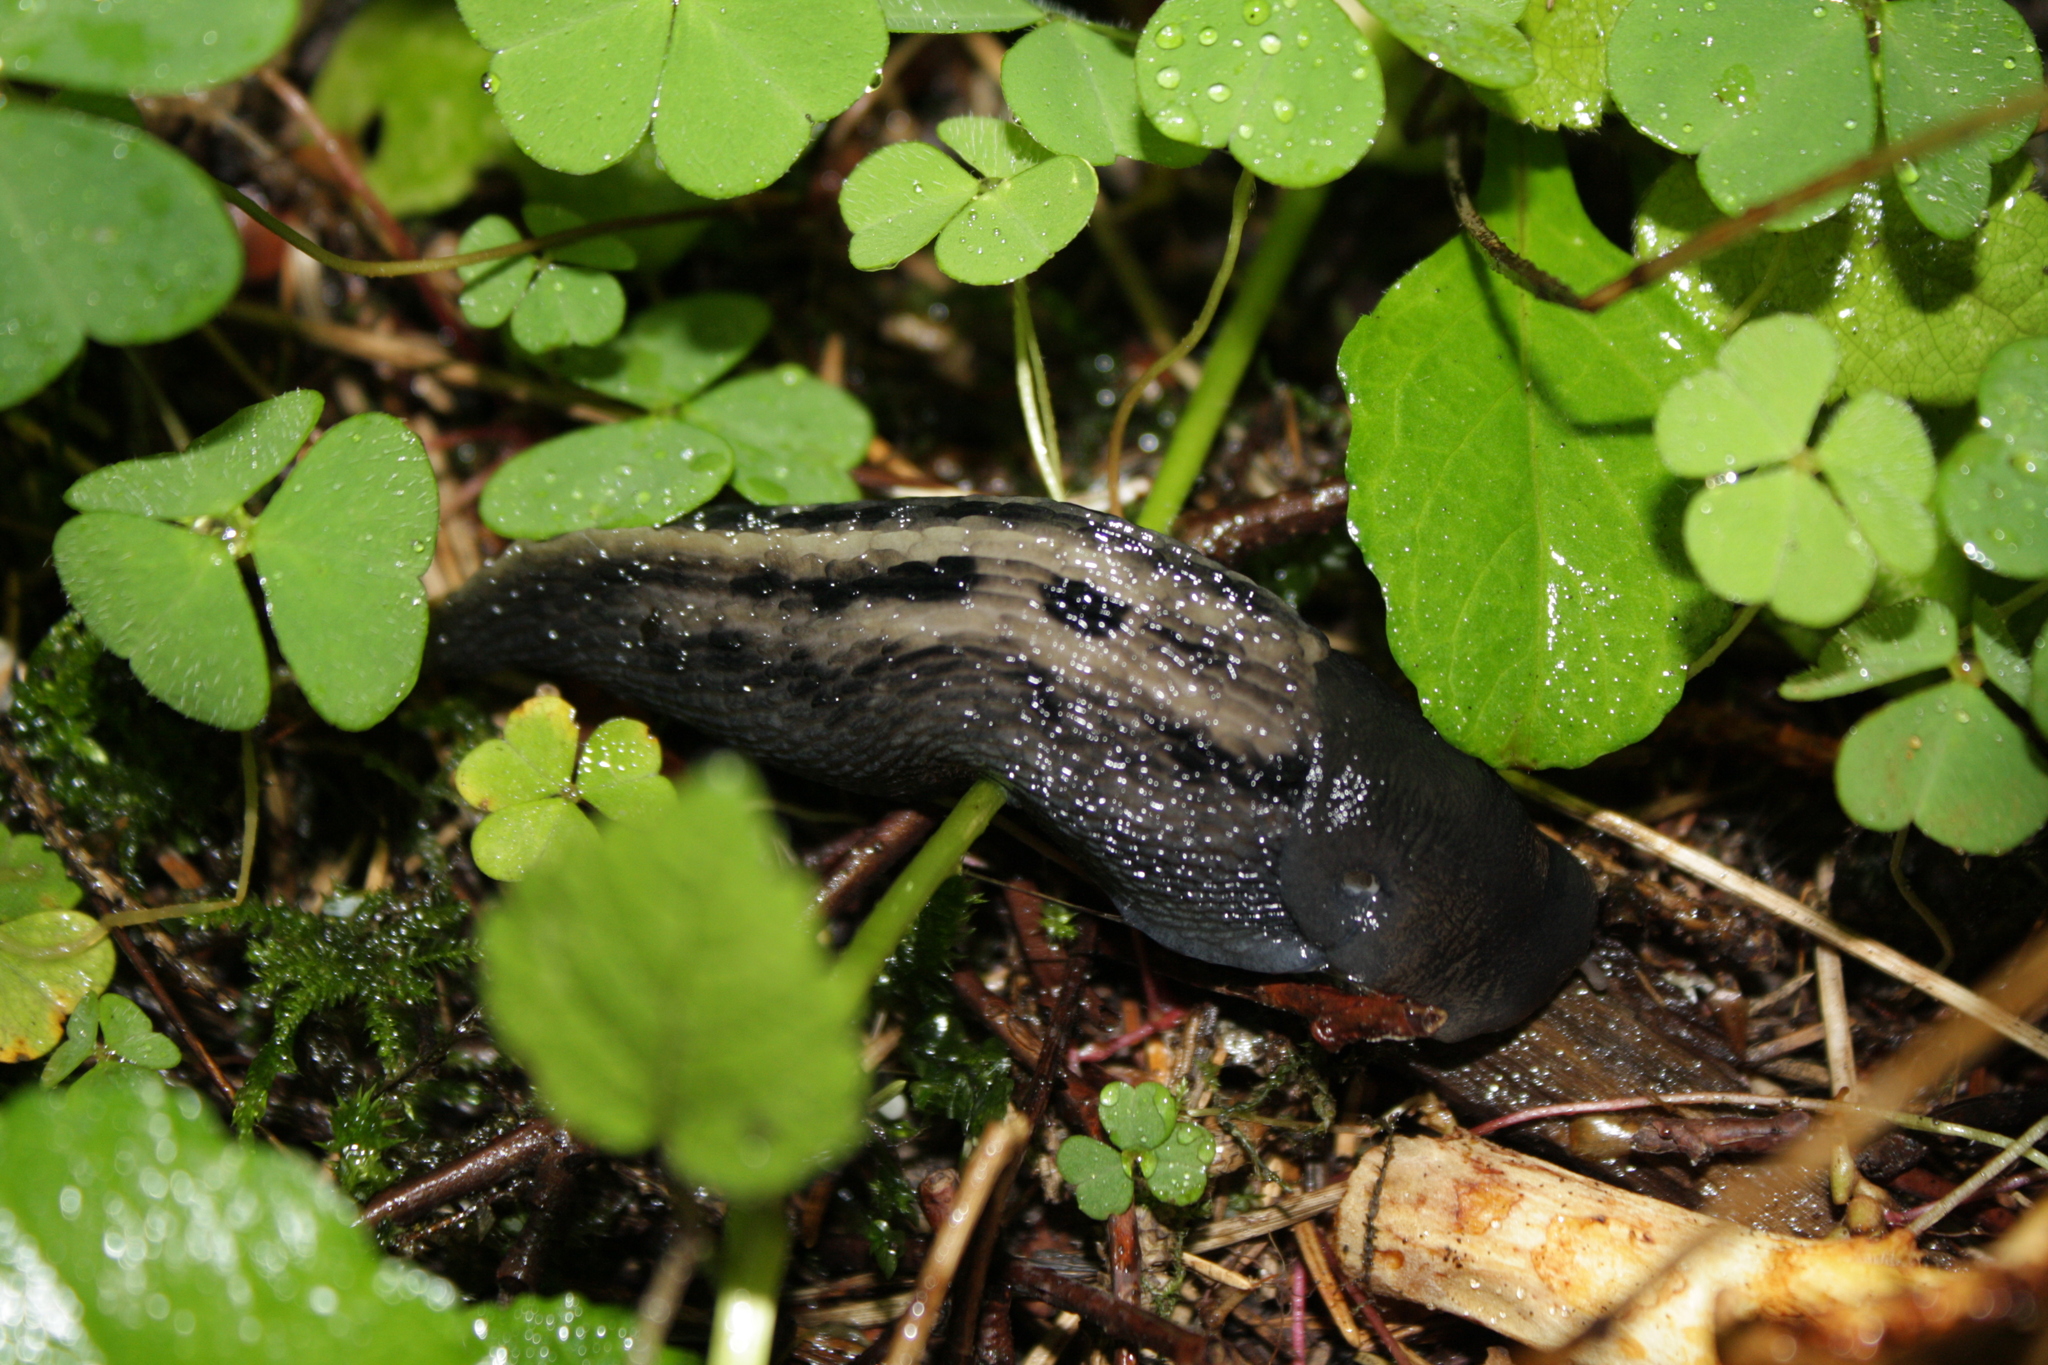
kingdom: Animalia
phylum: Mollusca
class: Gastropoda
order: Stylommatophora
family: Limacidae
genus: Limax
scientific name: Limax cinereoniger
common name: Ash-black slug
